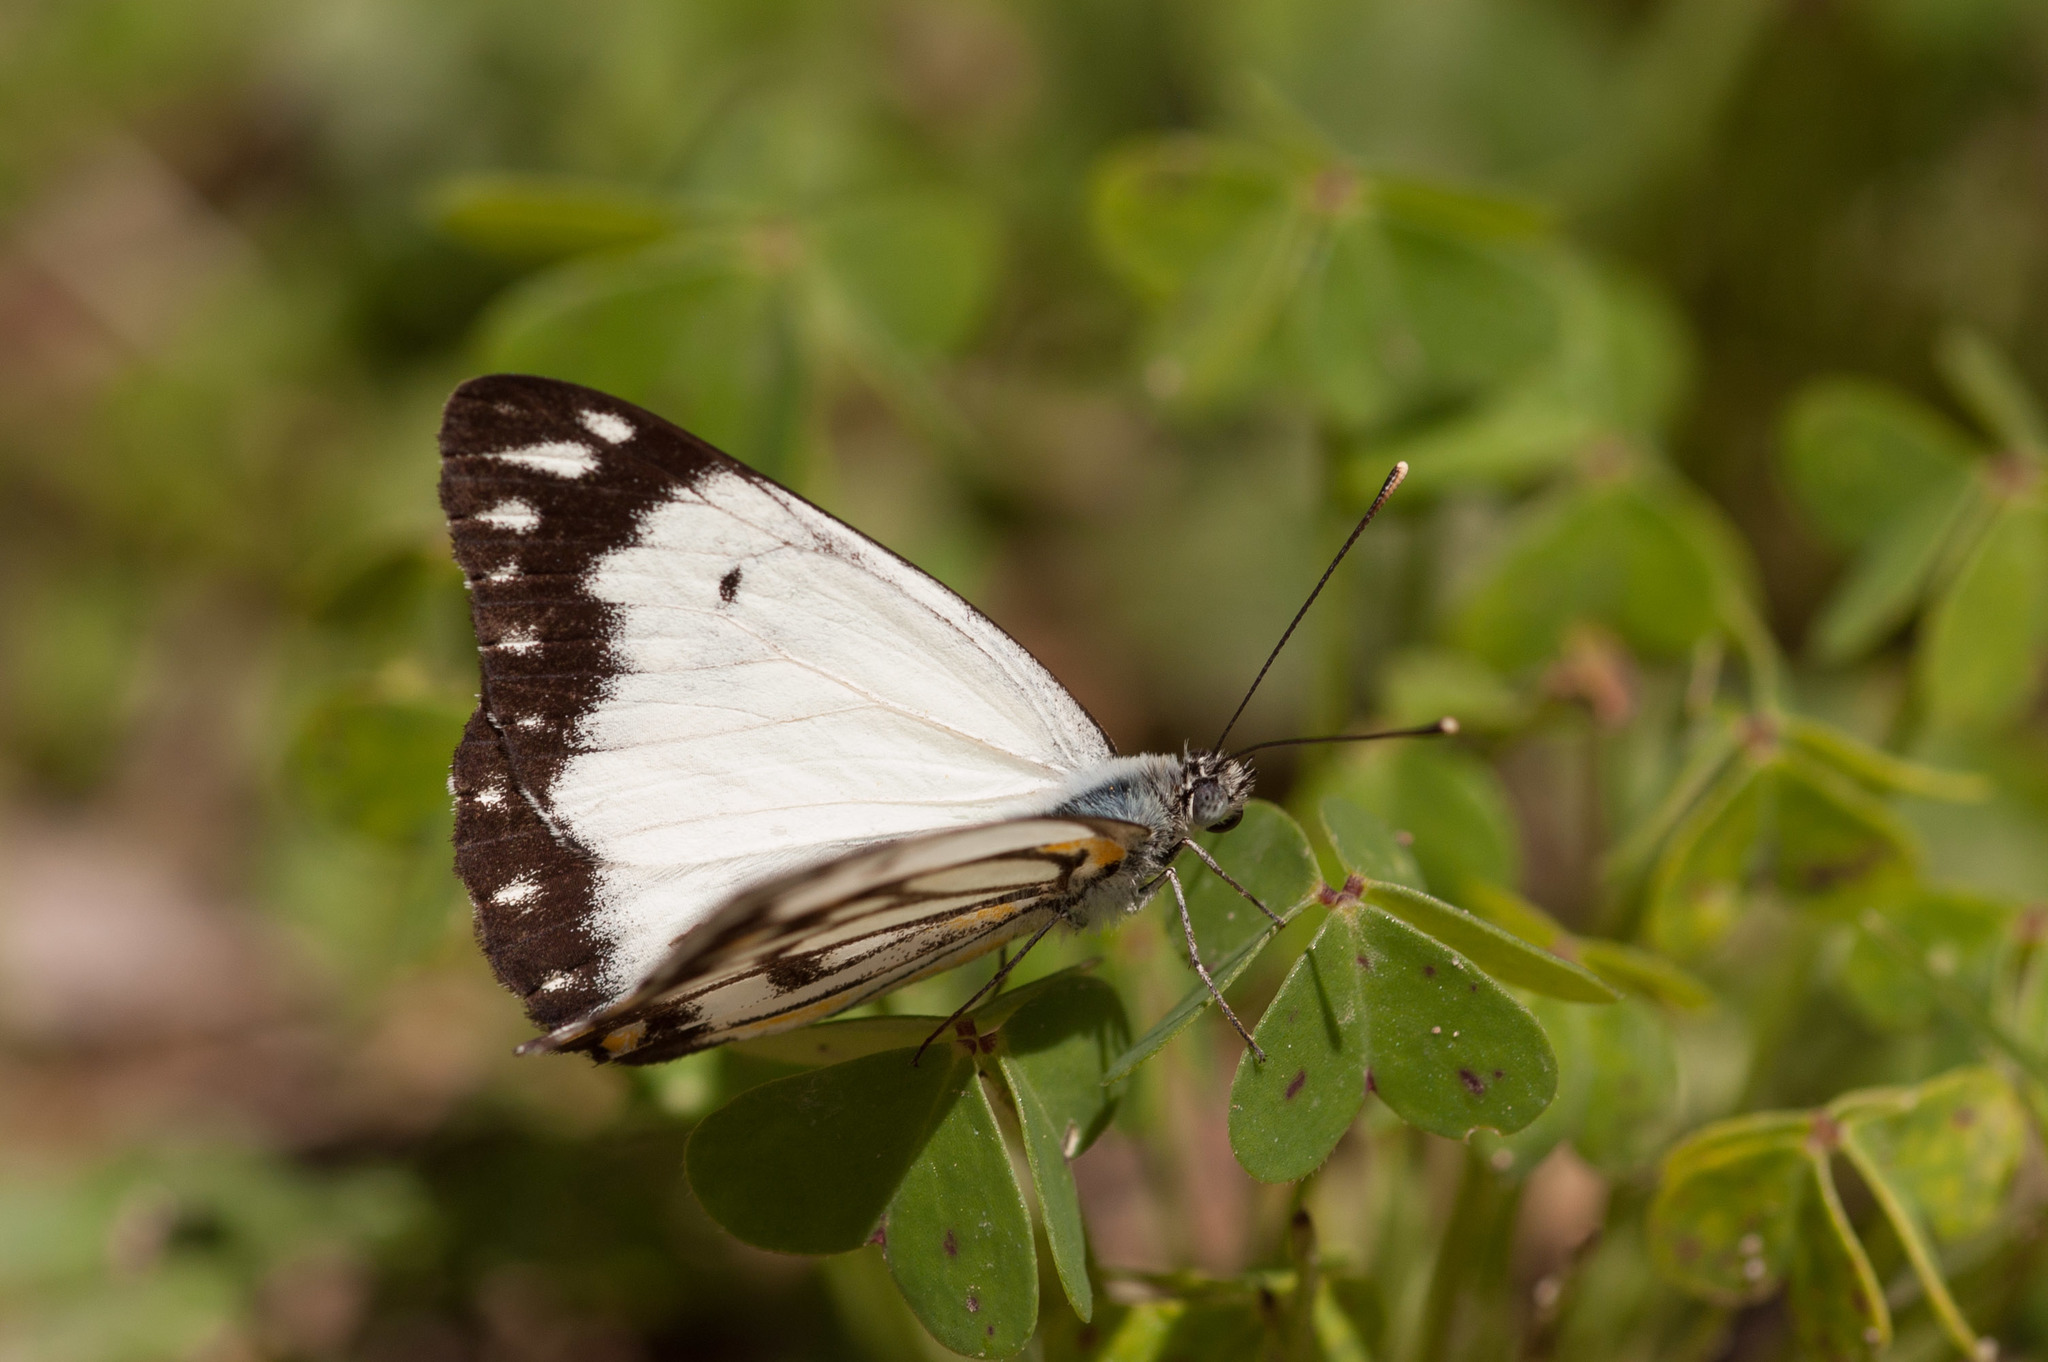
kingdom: Animalia
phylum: Arthropoda
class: Insecta
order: Lepidoptera
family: Pieridae
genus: Belenois
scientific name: Belenois java
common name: Caper white
